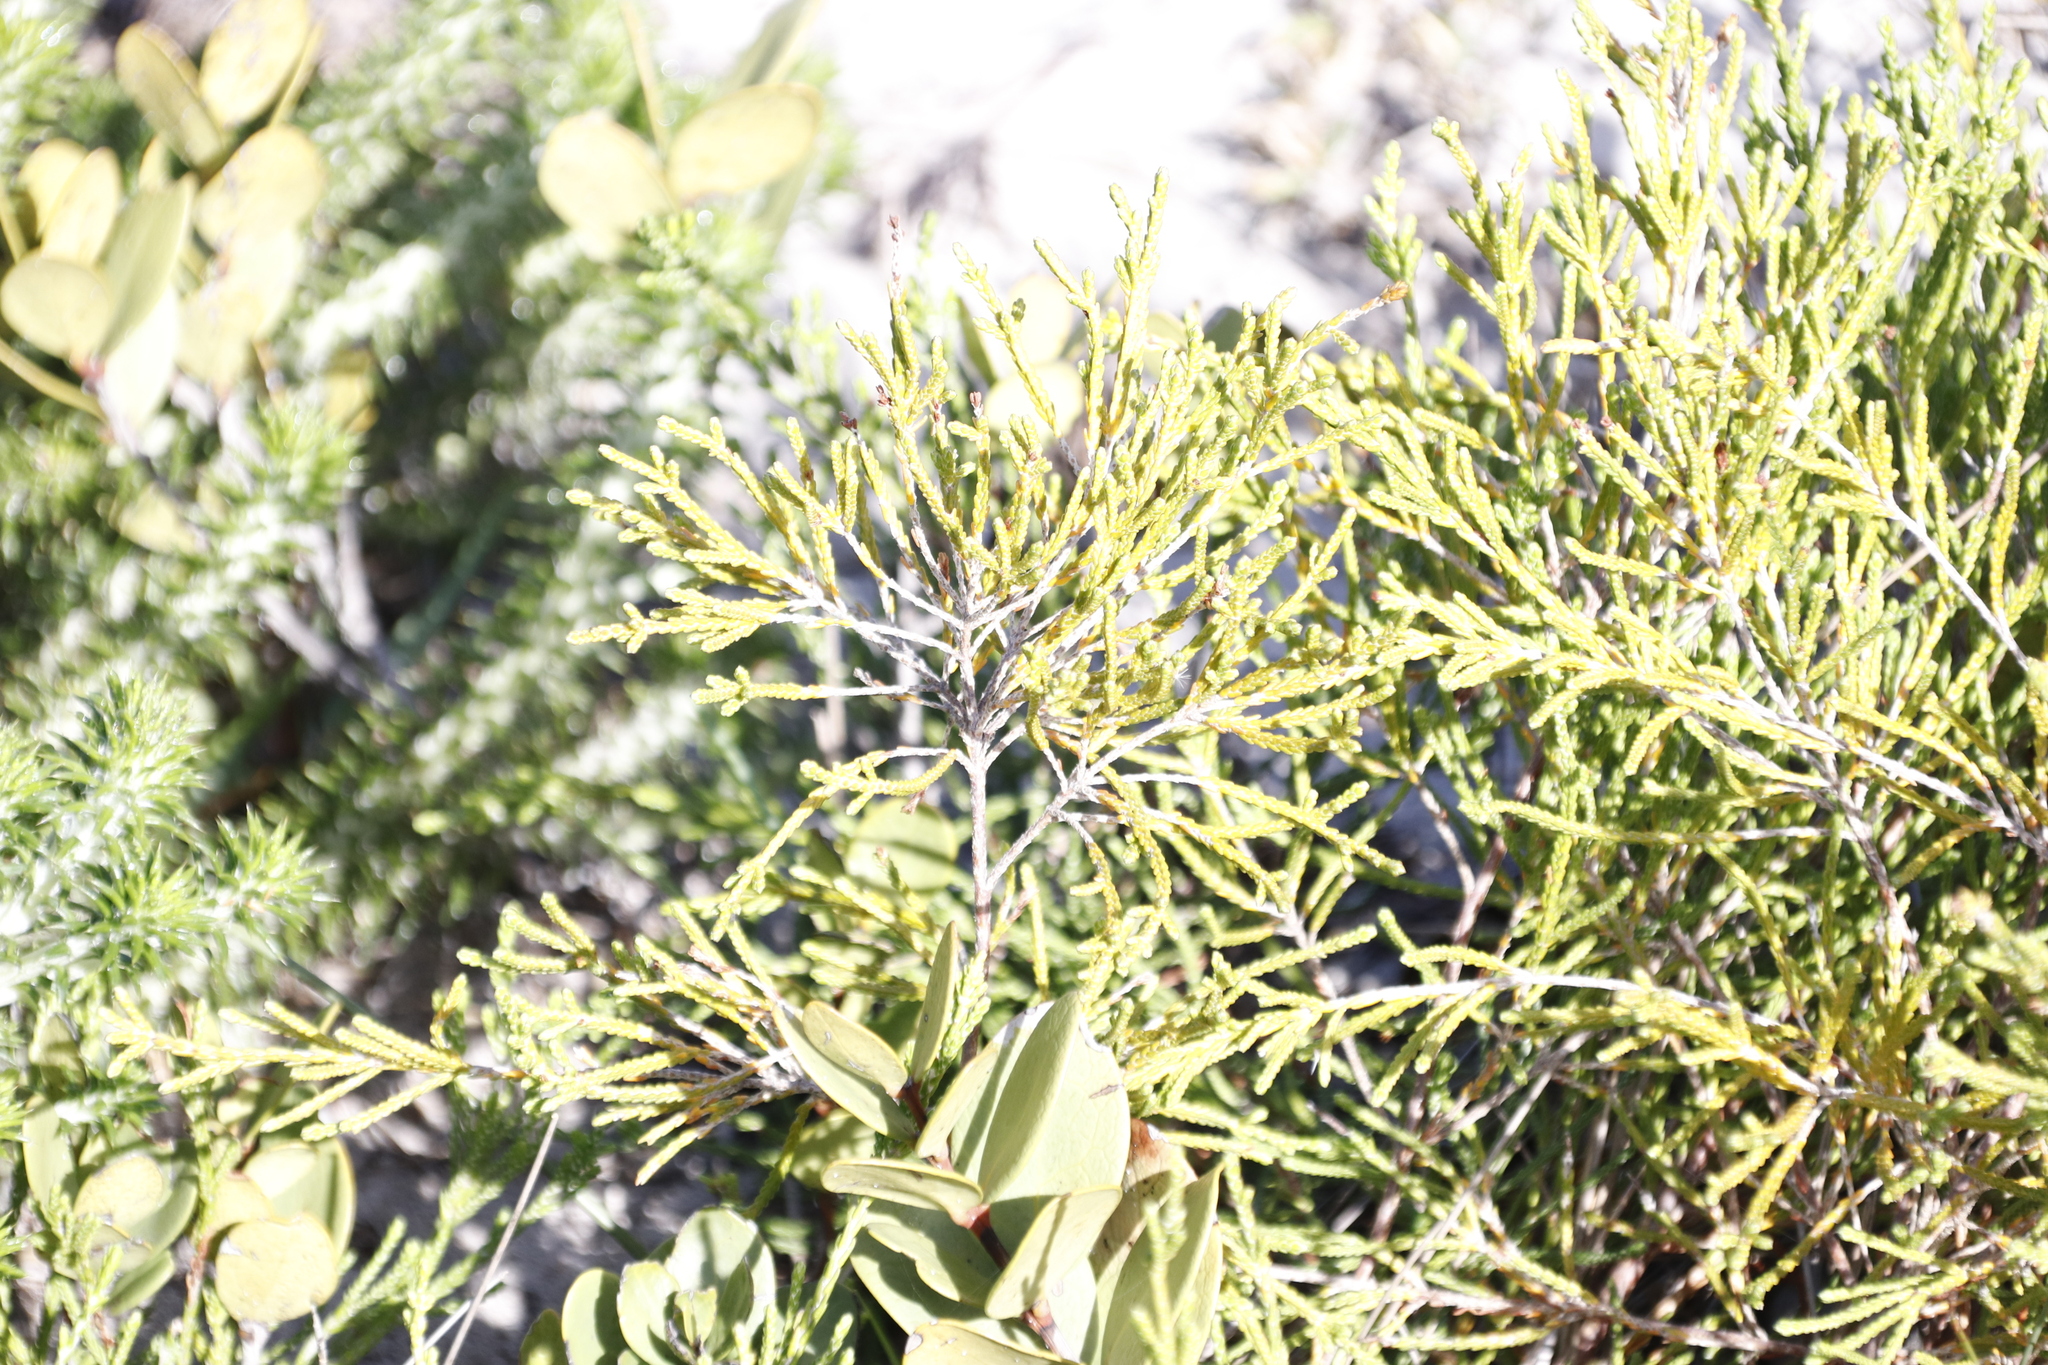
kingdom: Plantae
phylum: Tracheophyta
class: Magnoliopsida
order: Malvales
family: Thymelaeaceae
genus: Passerina
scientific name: Passerina paleacea
